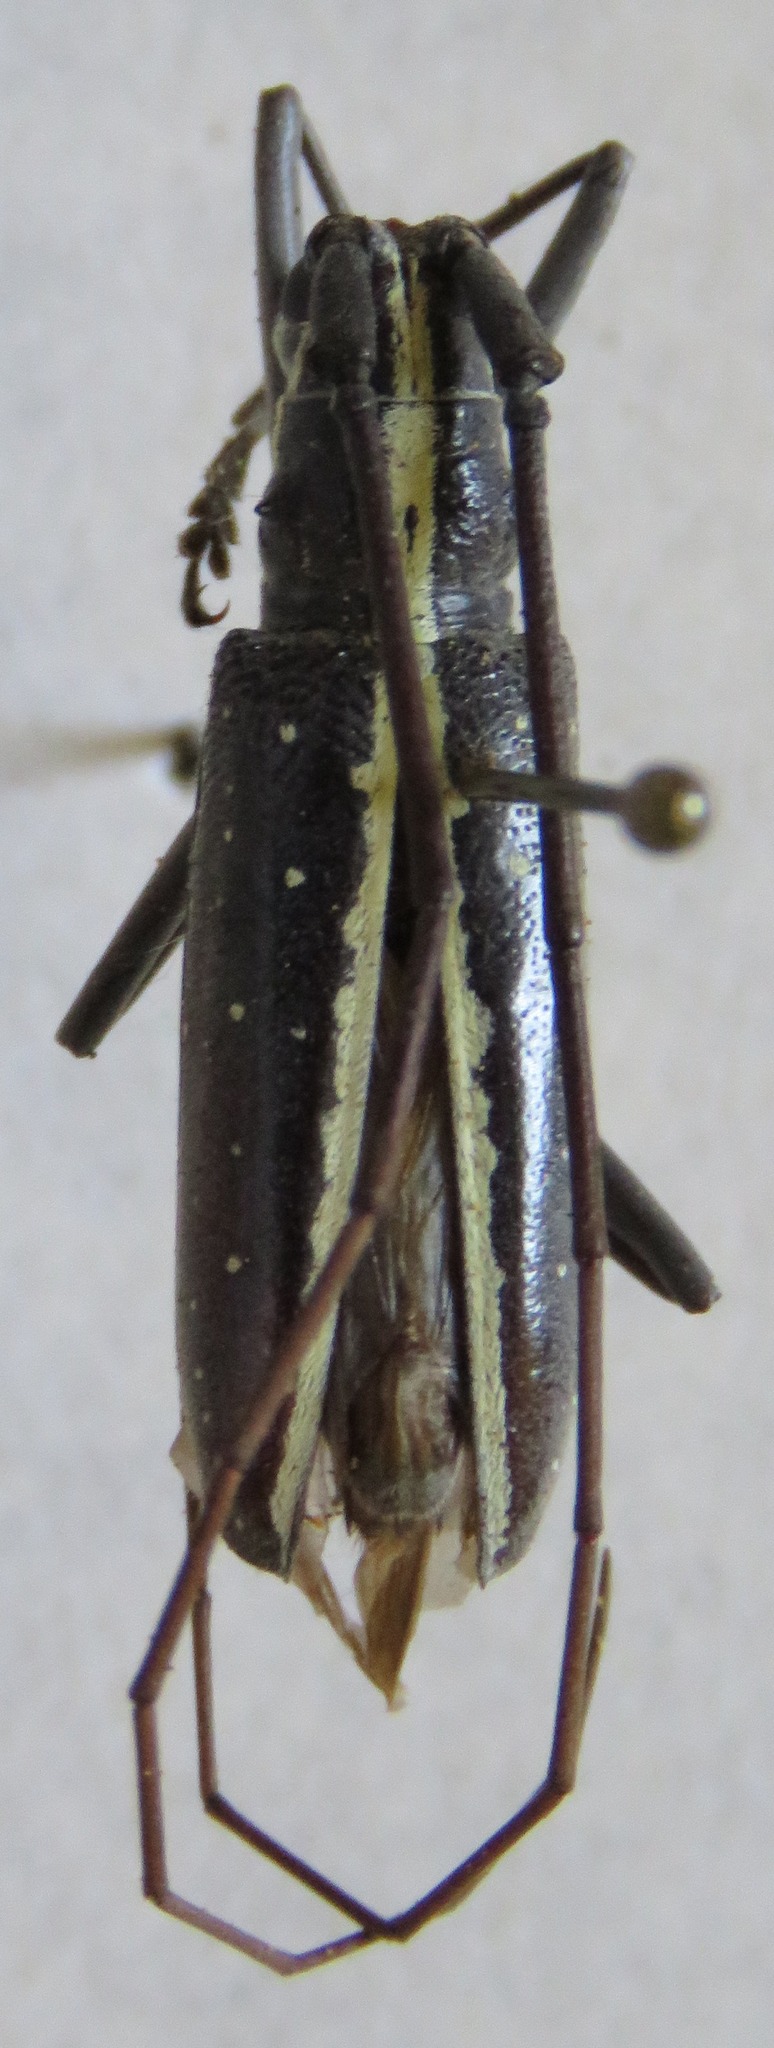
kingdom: Animalia
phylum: Arthropoda
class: Insecta
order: Coleoptera
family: Cerambycidae
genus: Taeniotes
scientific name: Taeniotes scalatus
